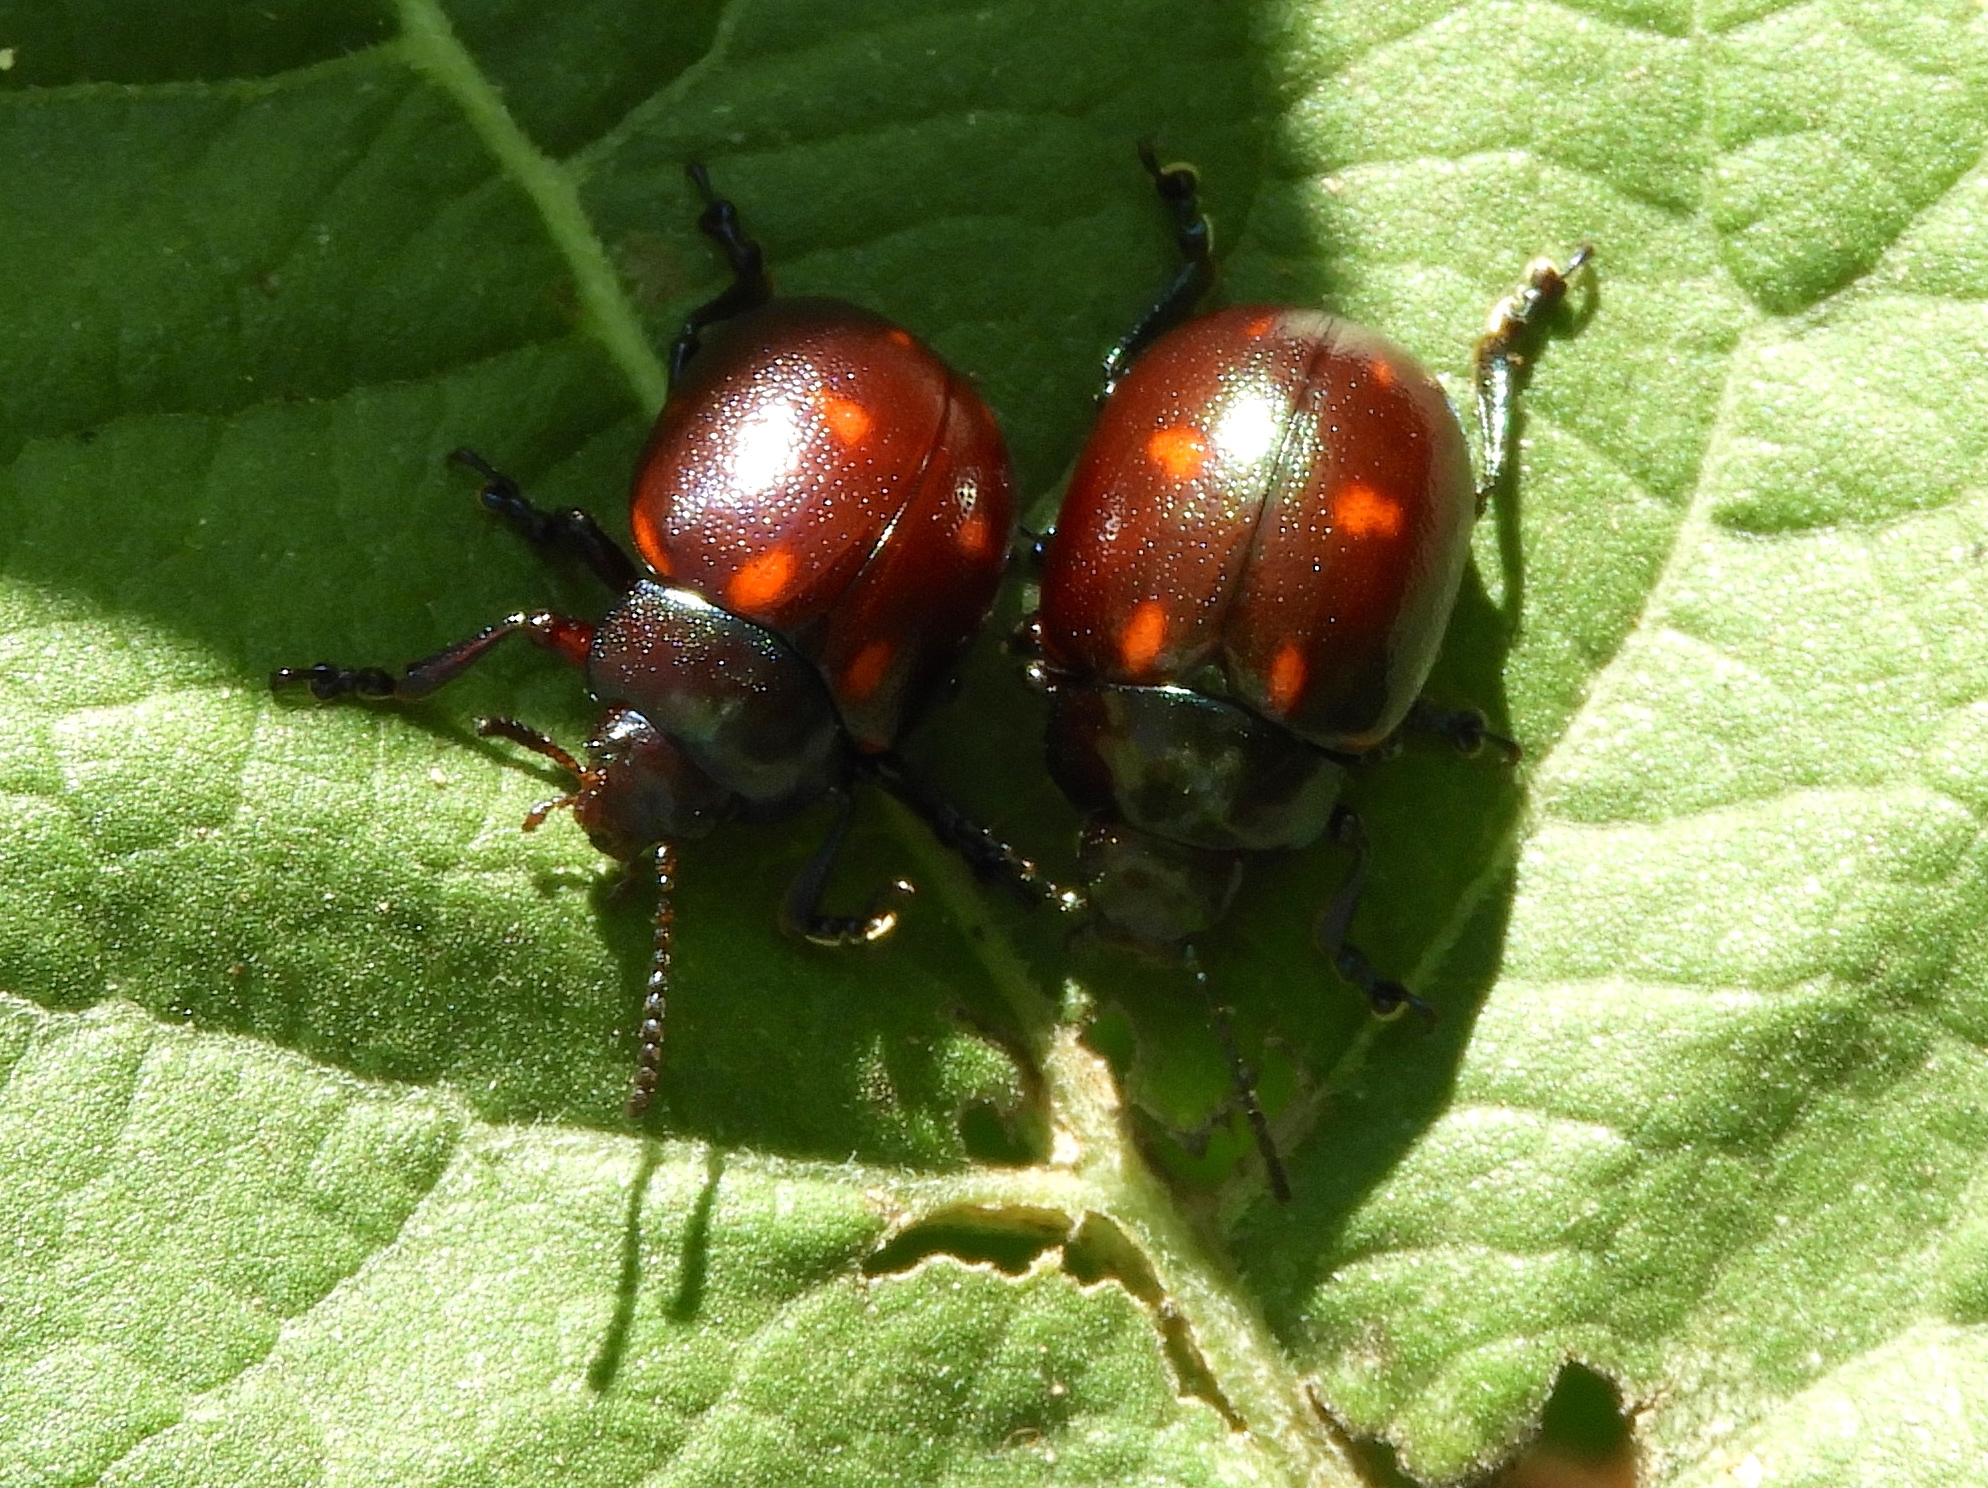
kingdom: Animalia
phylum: Arthropoda
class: Insecta
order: Coleoptera
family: Chrysomelidae
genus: Leptinotarsa
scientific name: Leptinotarsa behrensi
